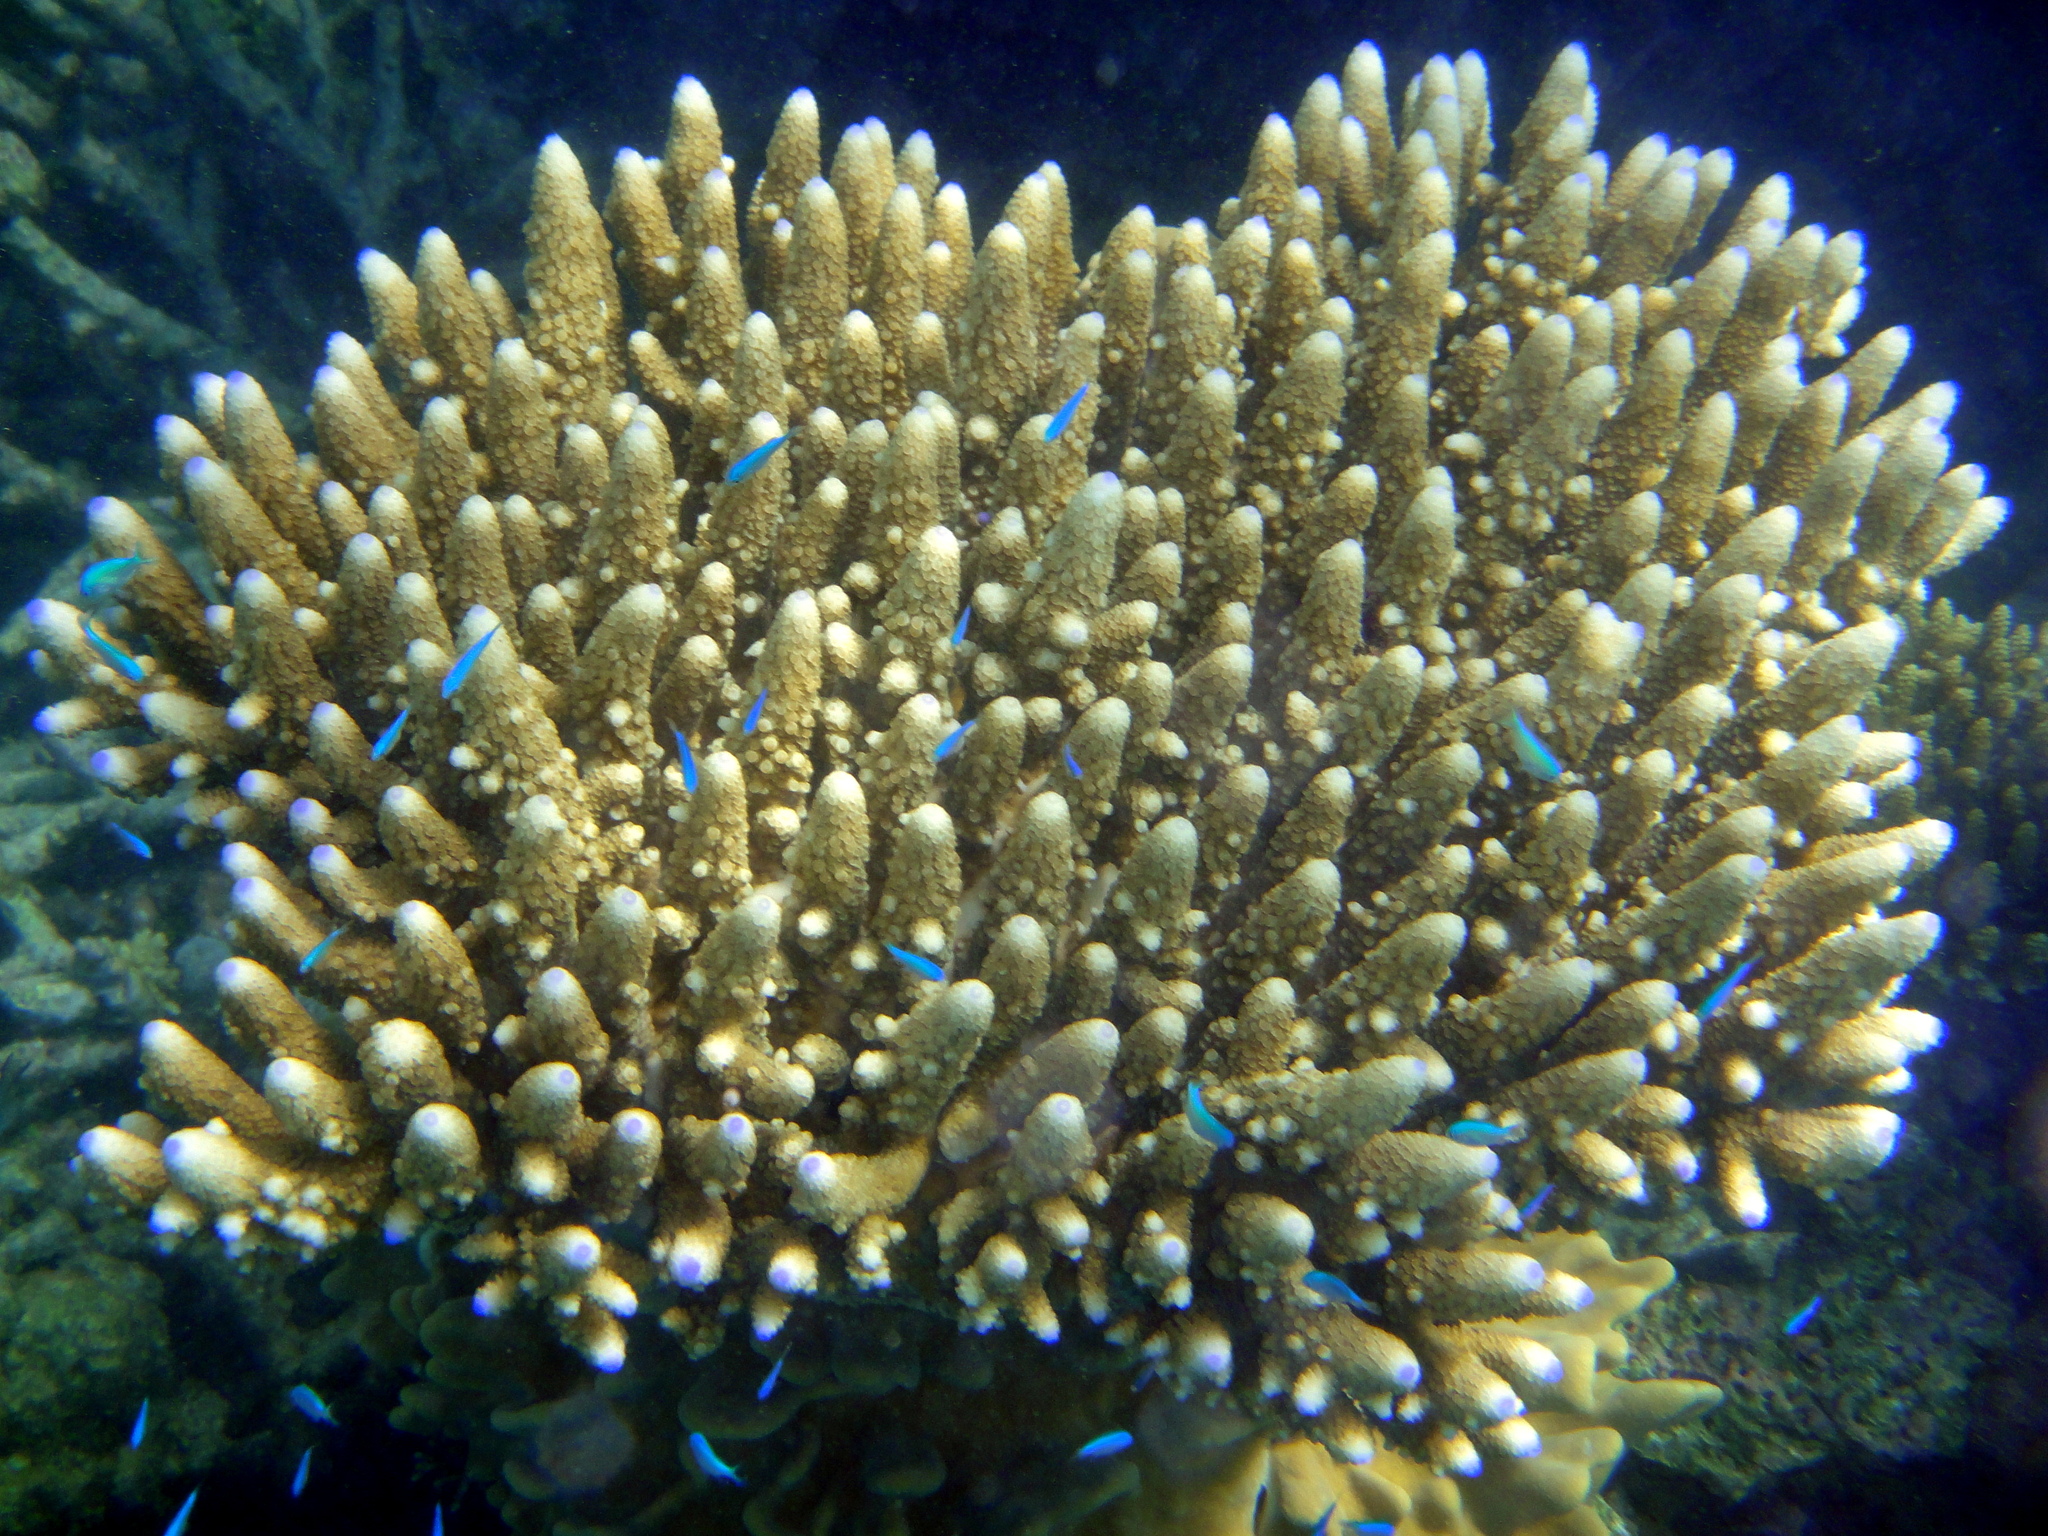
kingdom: Animalia
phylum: Chordata
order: Perciformes
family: Pomacentridae
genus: Chromis
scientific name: Chromis viridis
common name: Blue-green chromis
